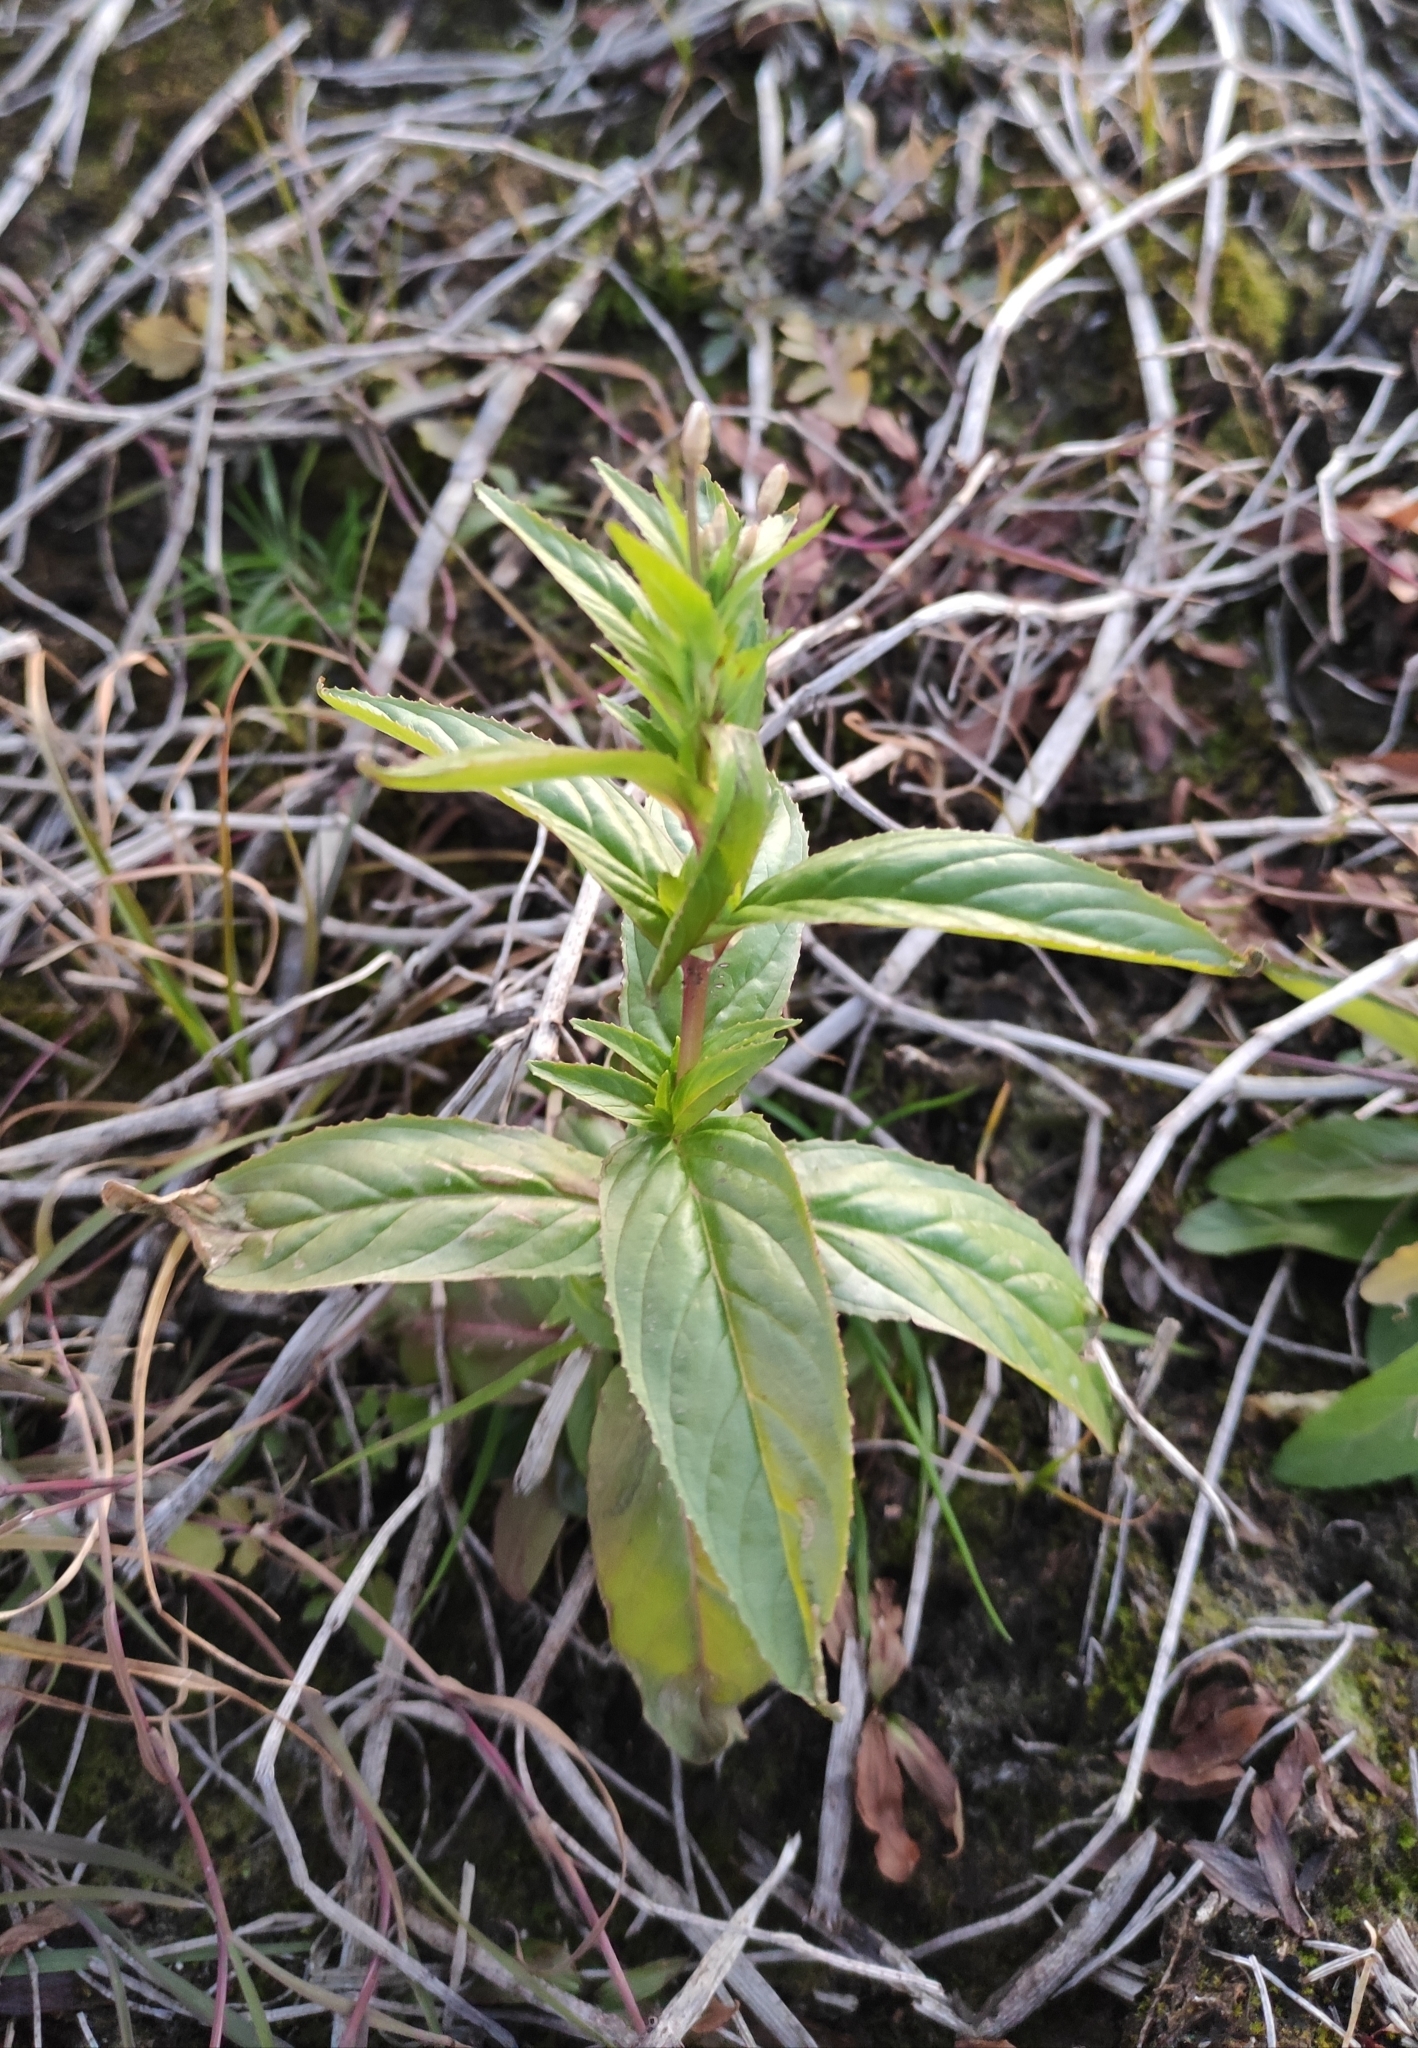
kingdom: Plantae
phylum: Tracheophyta
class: Magnoliopsida
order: Myrtales
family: Onagraceae
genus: Epilobium
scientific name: Epilobium pseudorubescens
